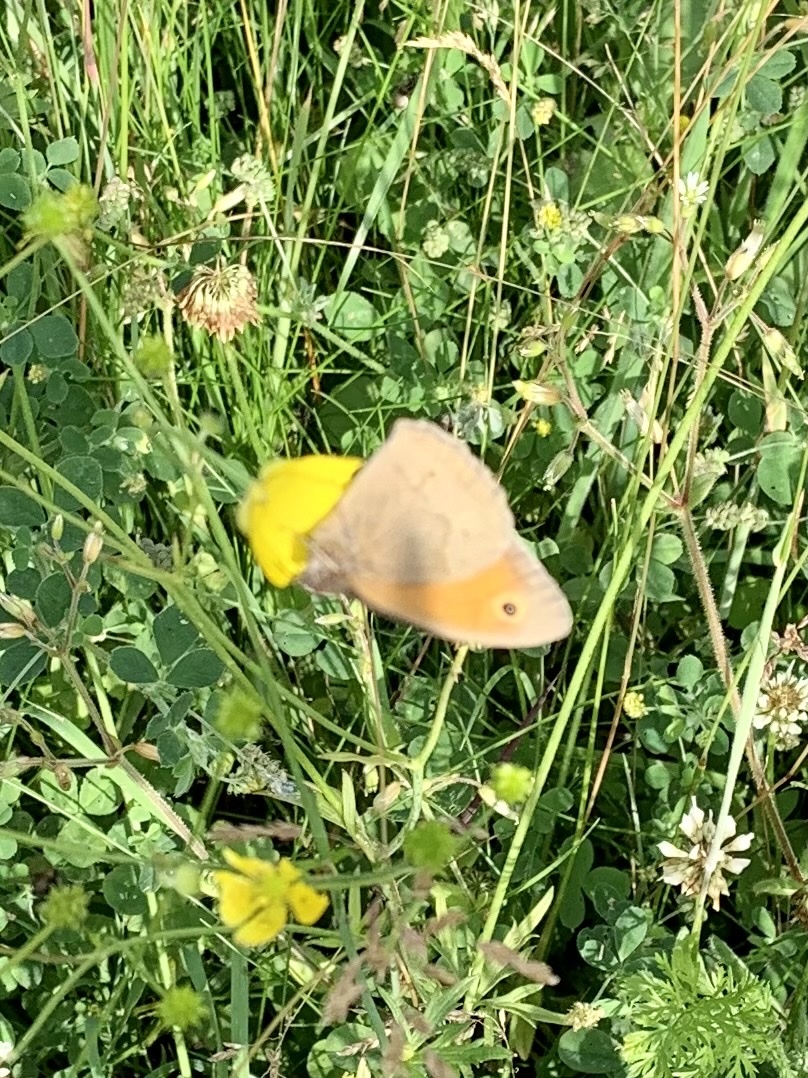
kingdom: Animalia
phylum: Arthropoda
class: Insecta
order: Lepidoptera
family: Nymphalidae
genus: Maniola
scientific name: Maniola jurtina
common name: Meadow brown
